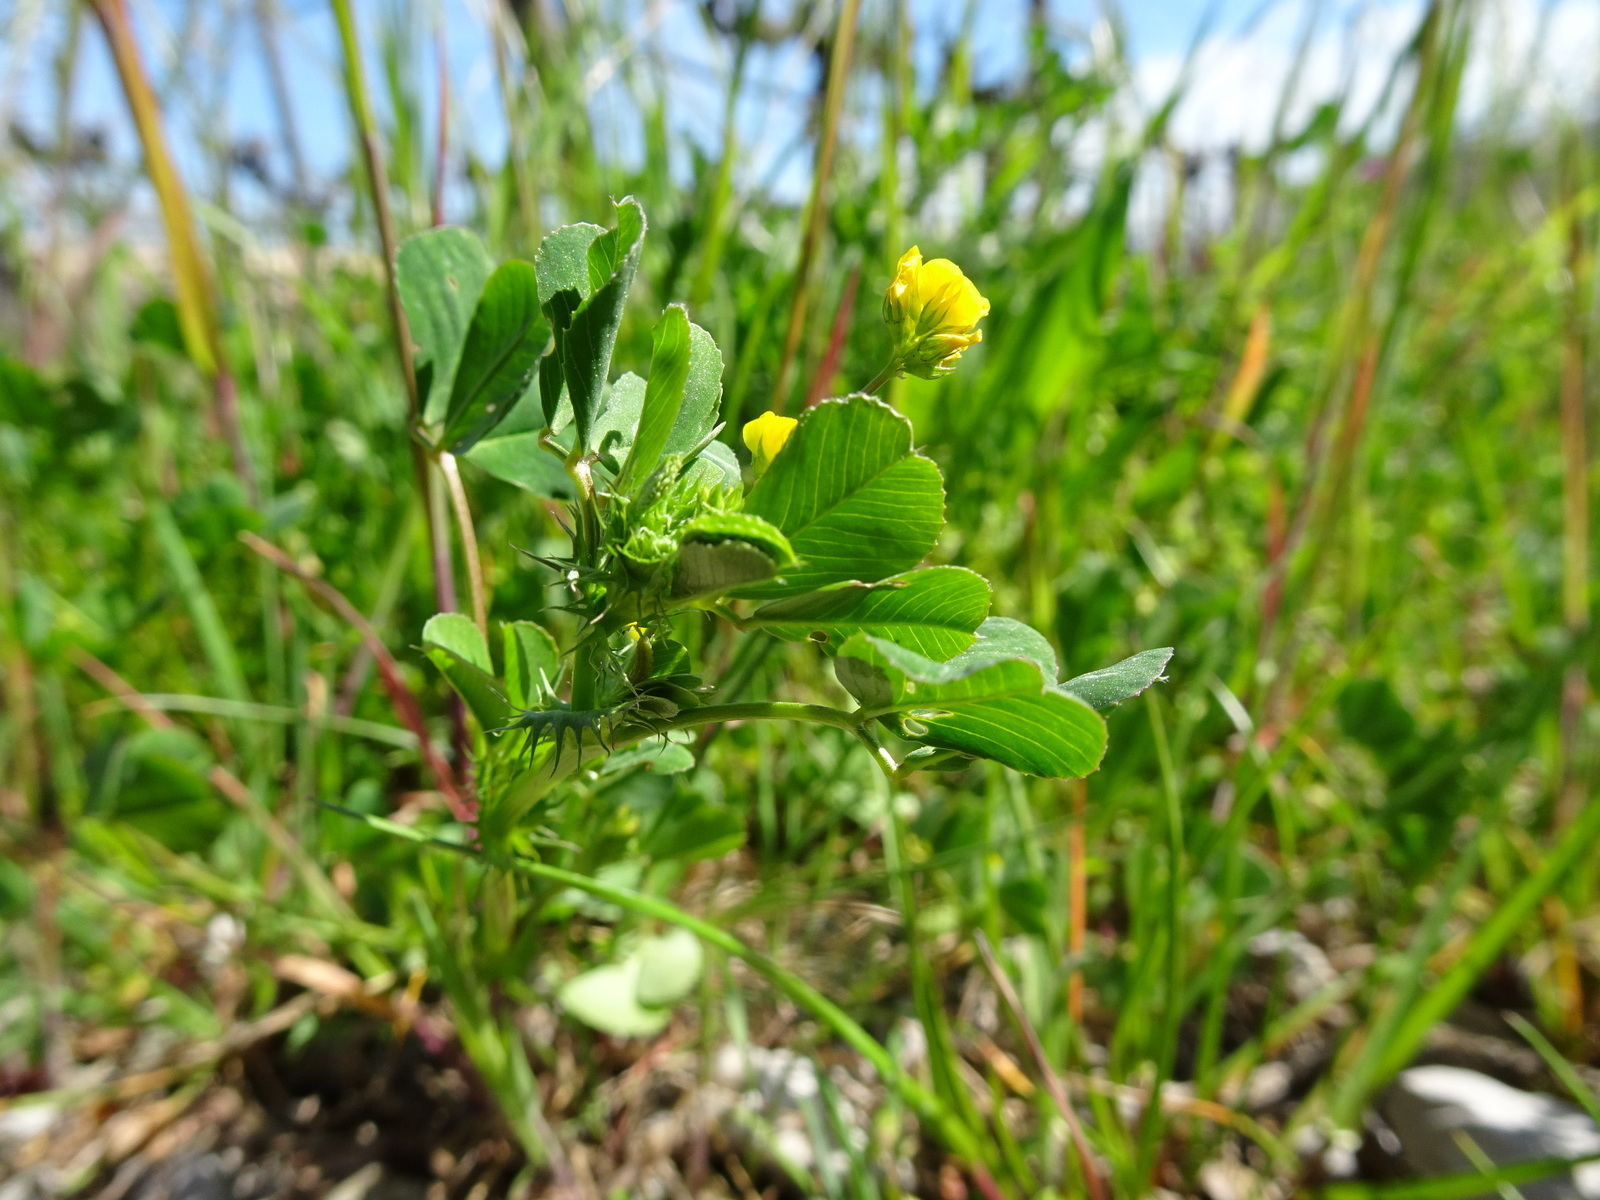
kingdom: Plantae
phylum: Tracheophyta
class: Magnoliopsida
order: Fabales
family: Fabaceae
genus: Medicago
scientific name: Medicago polymorpha
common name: Burclover
